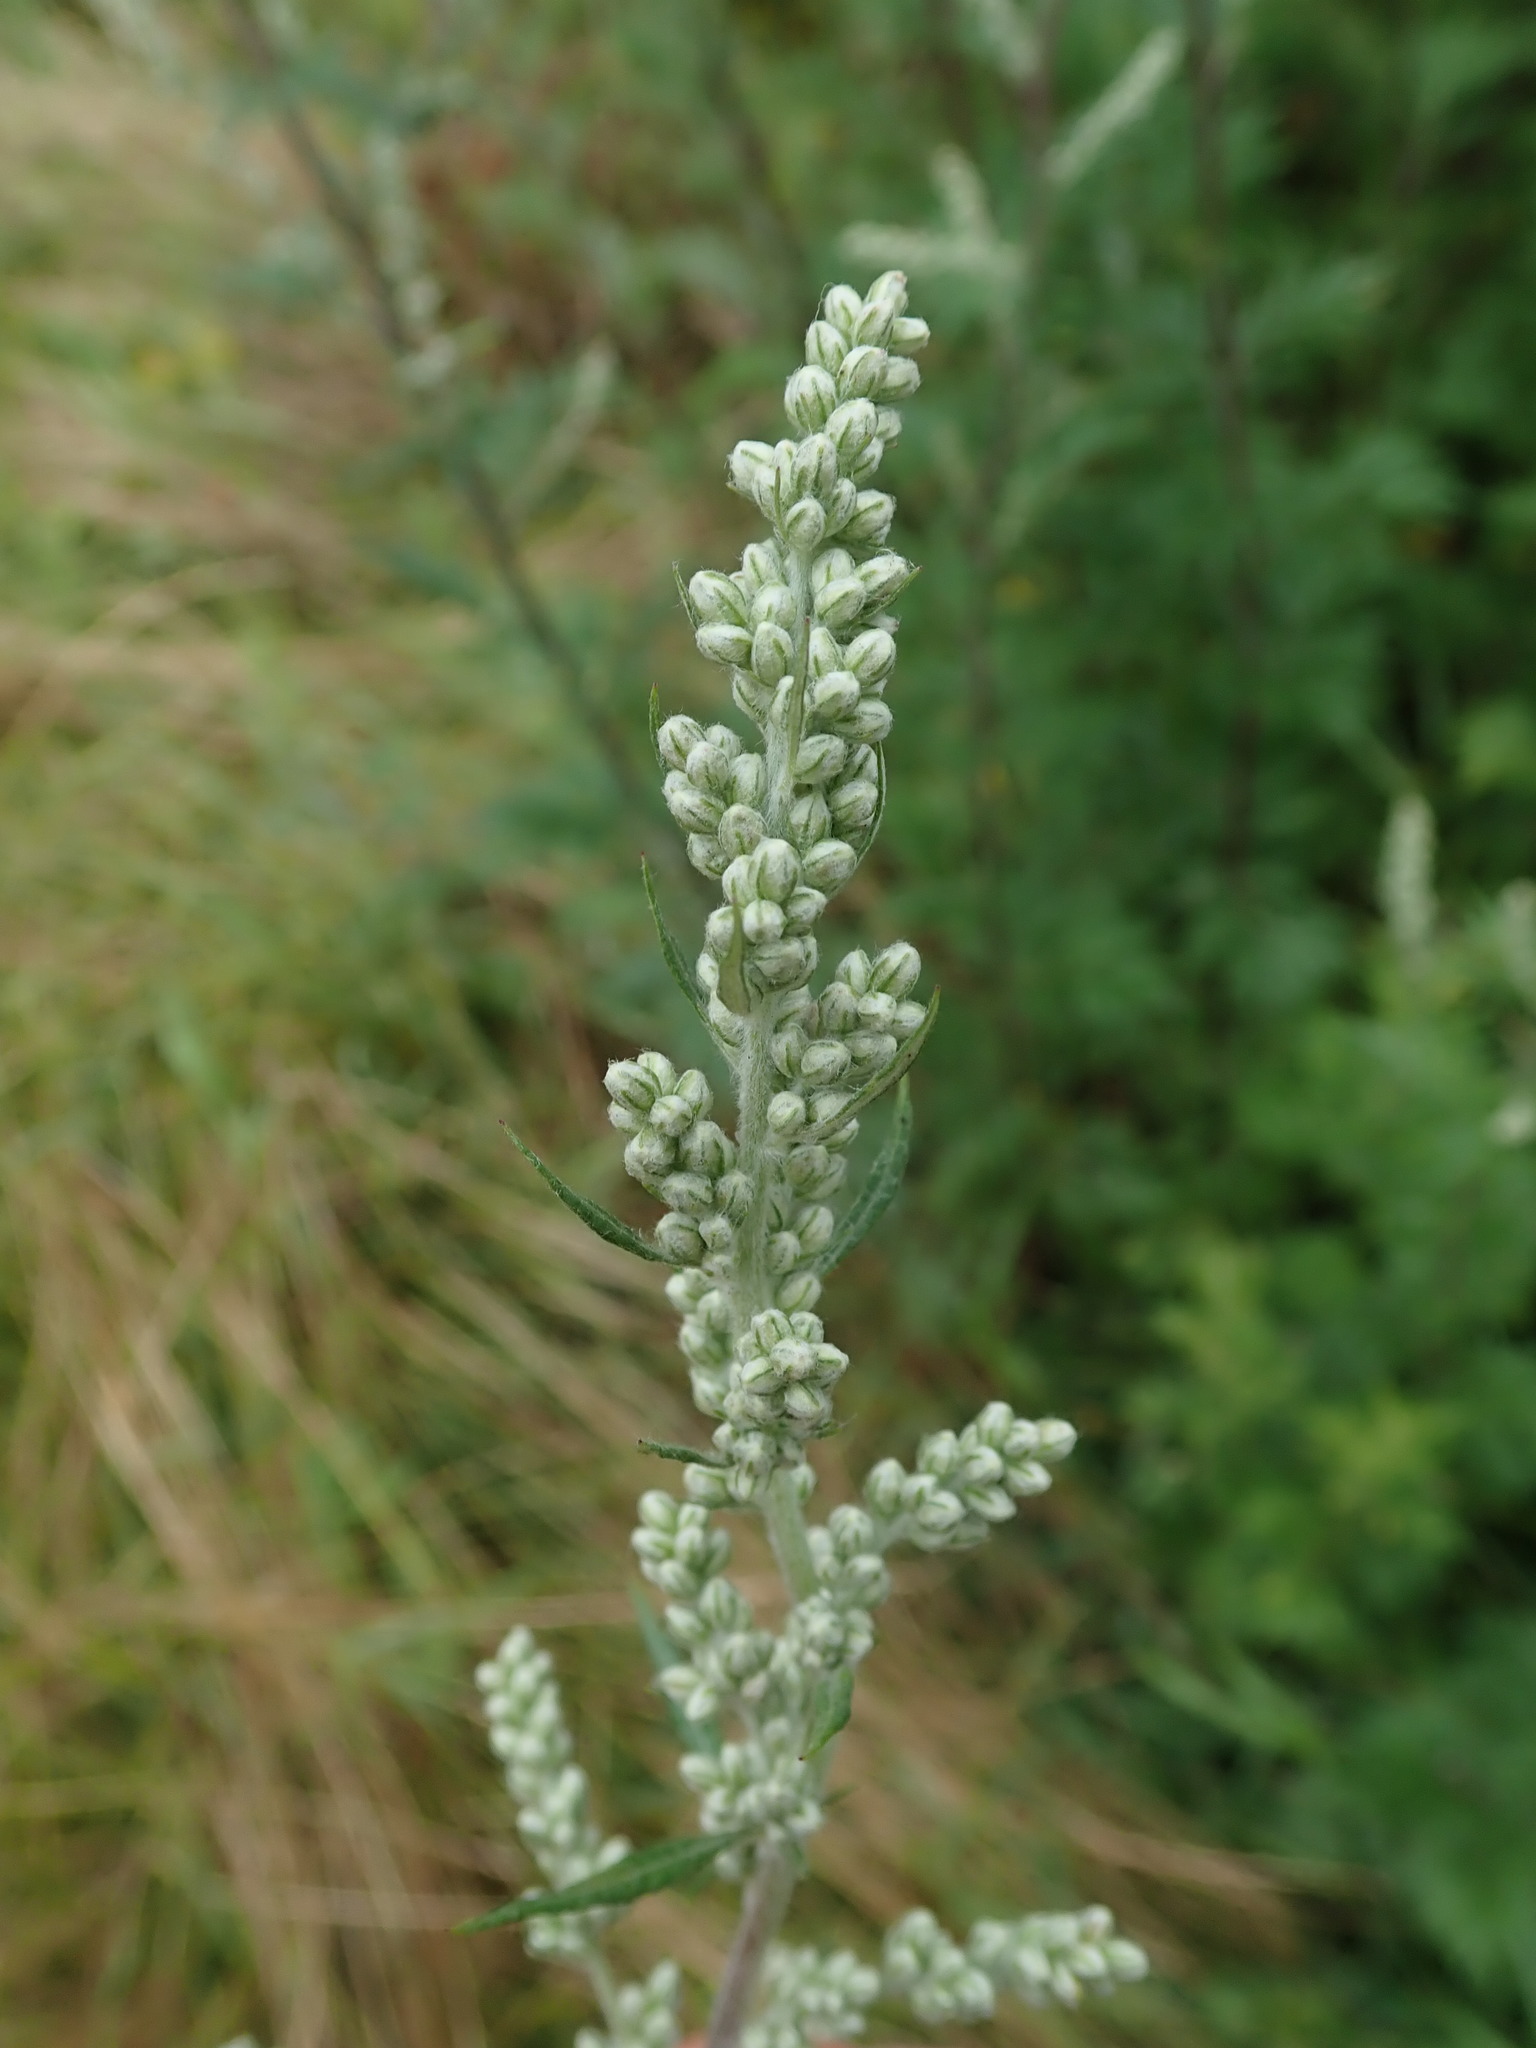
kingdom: Plantae
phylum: Tracheophyta
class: Magnoliopsida
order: Asterales
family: Asteraceae
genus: Artemisia
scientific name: Artemisia vulgaris
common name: Mugwort
